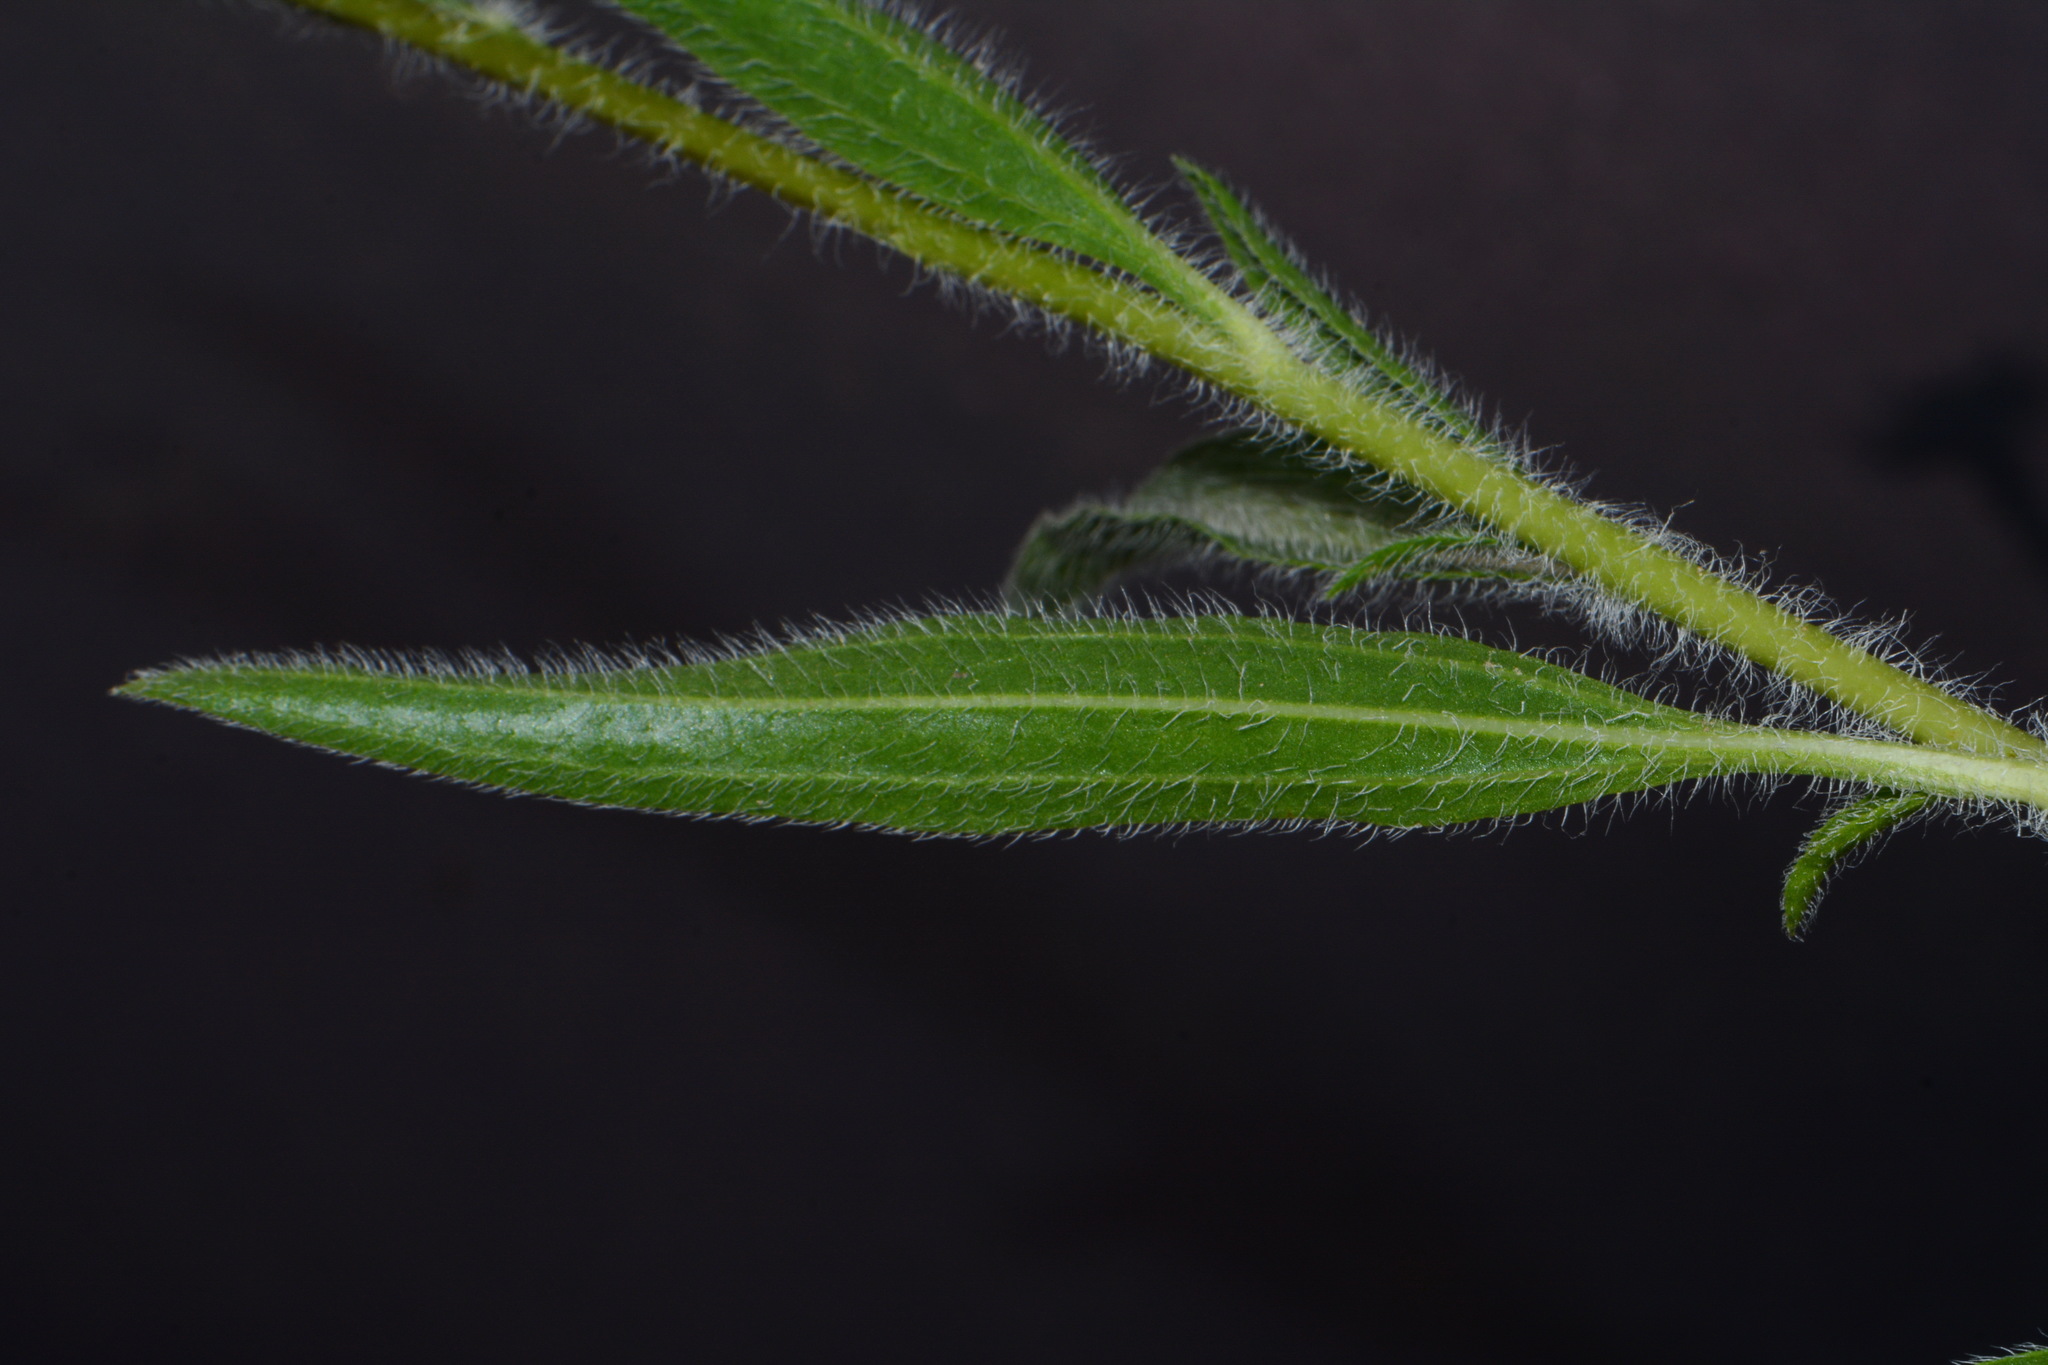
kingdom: Plantae
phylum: Tracheophyta
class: Magnoliopsida
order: Asterales
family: Asteraceae
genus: Echinacea
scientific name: Echinacea tennesseensis
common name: Tennessee purple-coneflower
